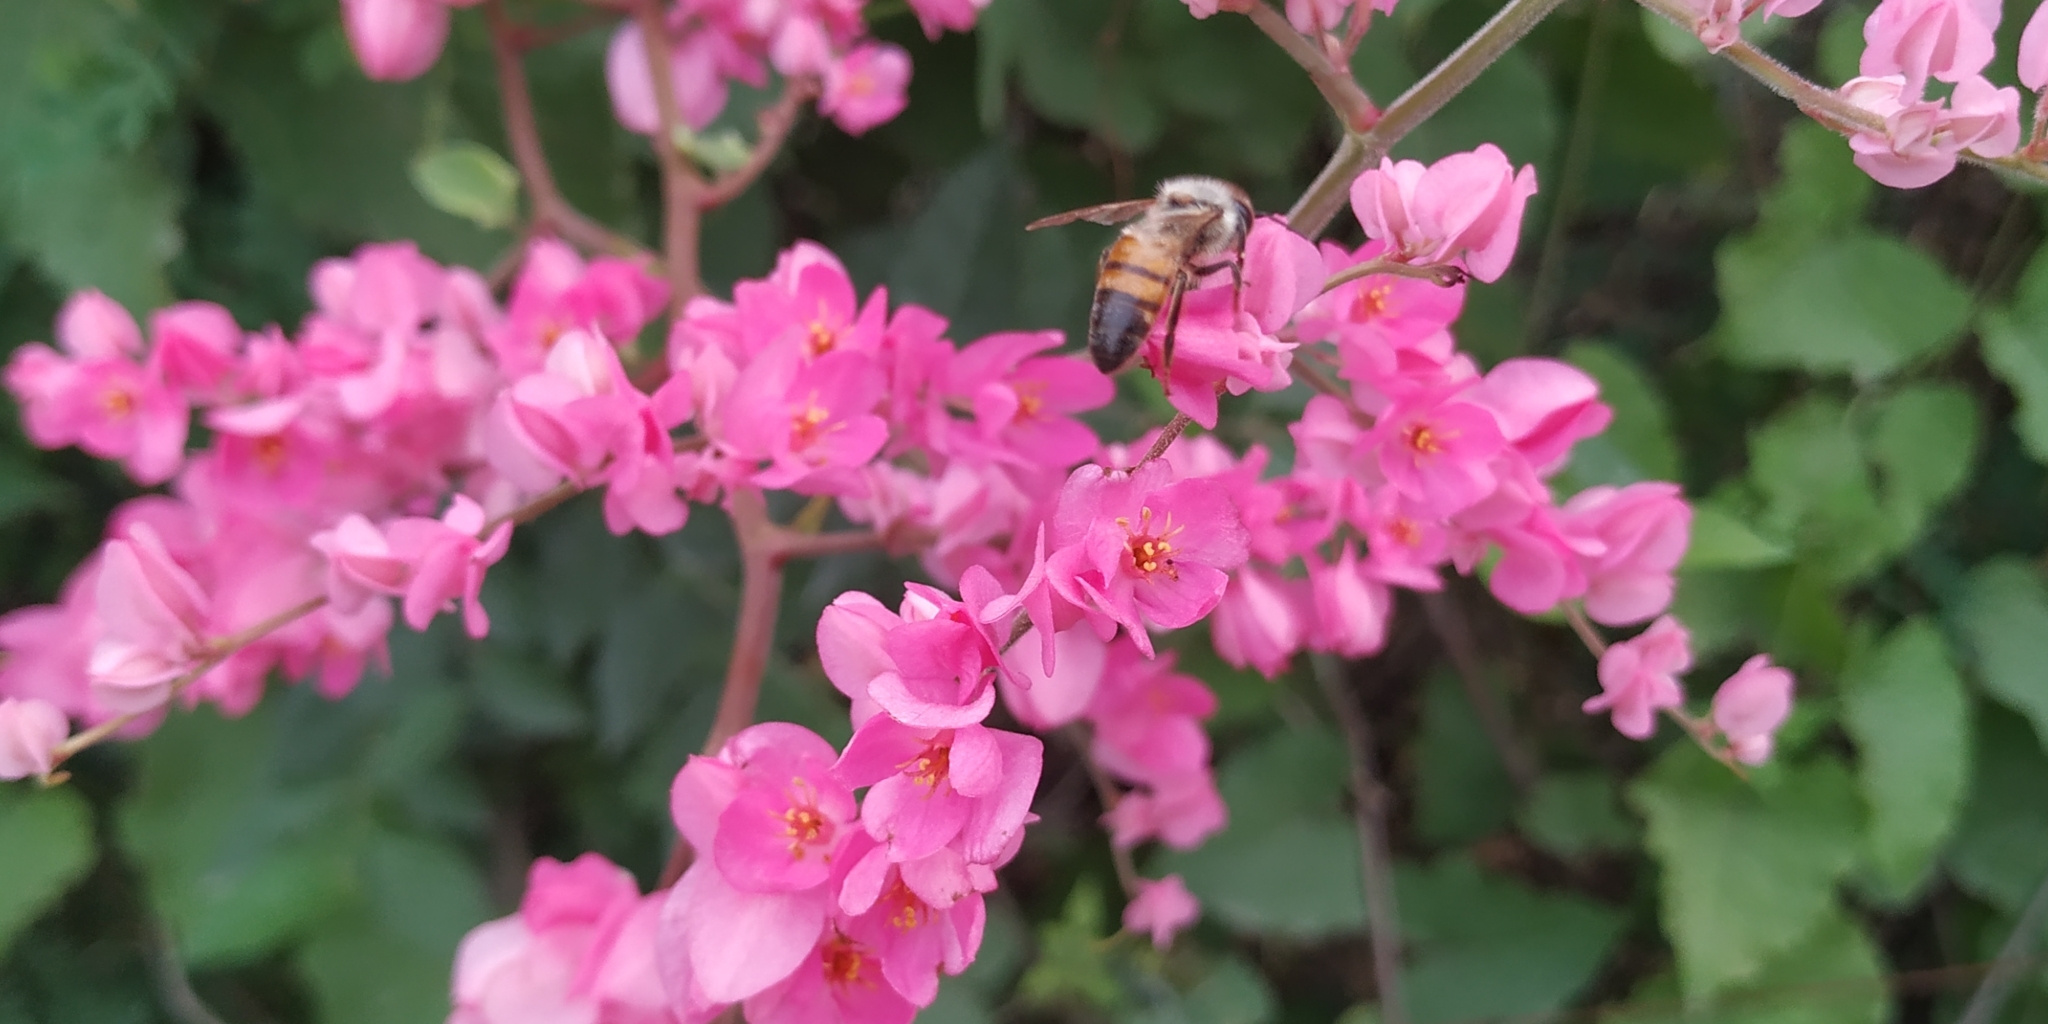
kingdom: Animalia
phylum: Arthropoda
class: Insecta
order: Hymenoptera
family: Apidae
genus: Apis
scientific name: Apis mellifera
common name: Honey bee
